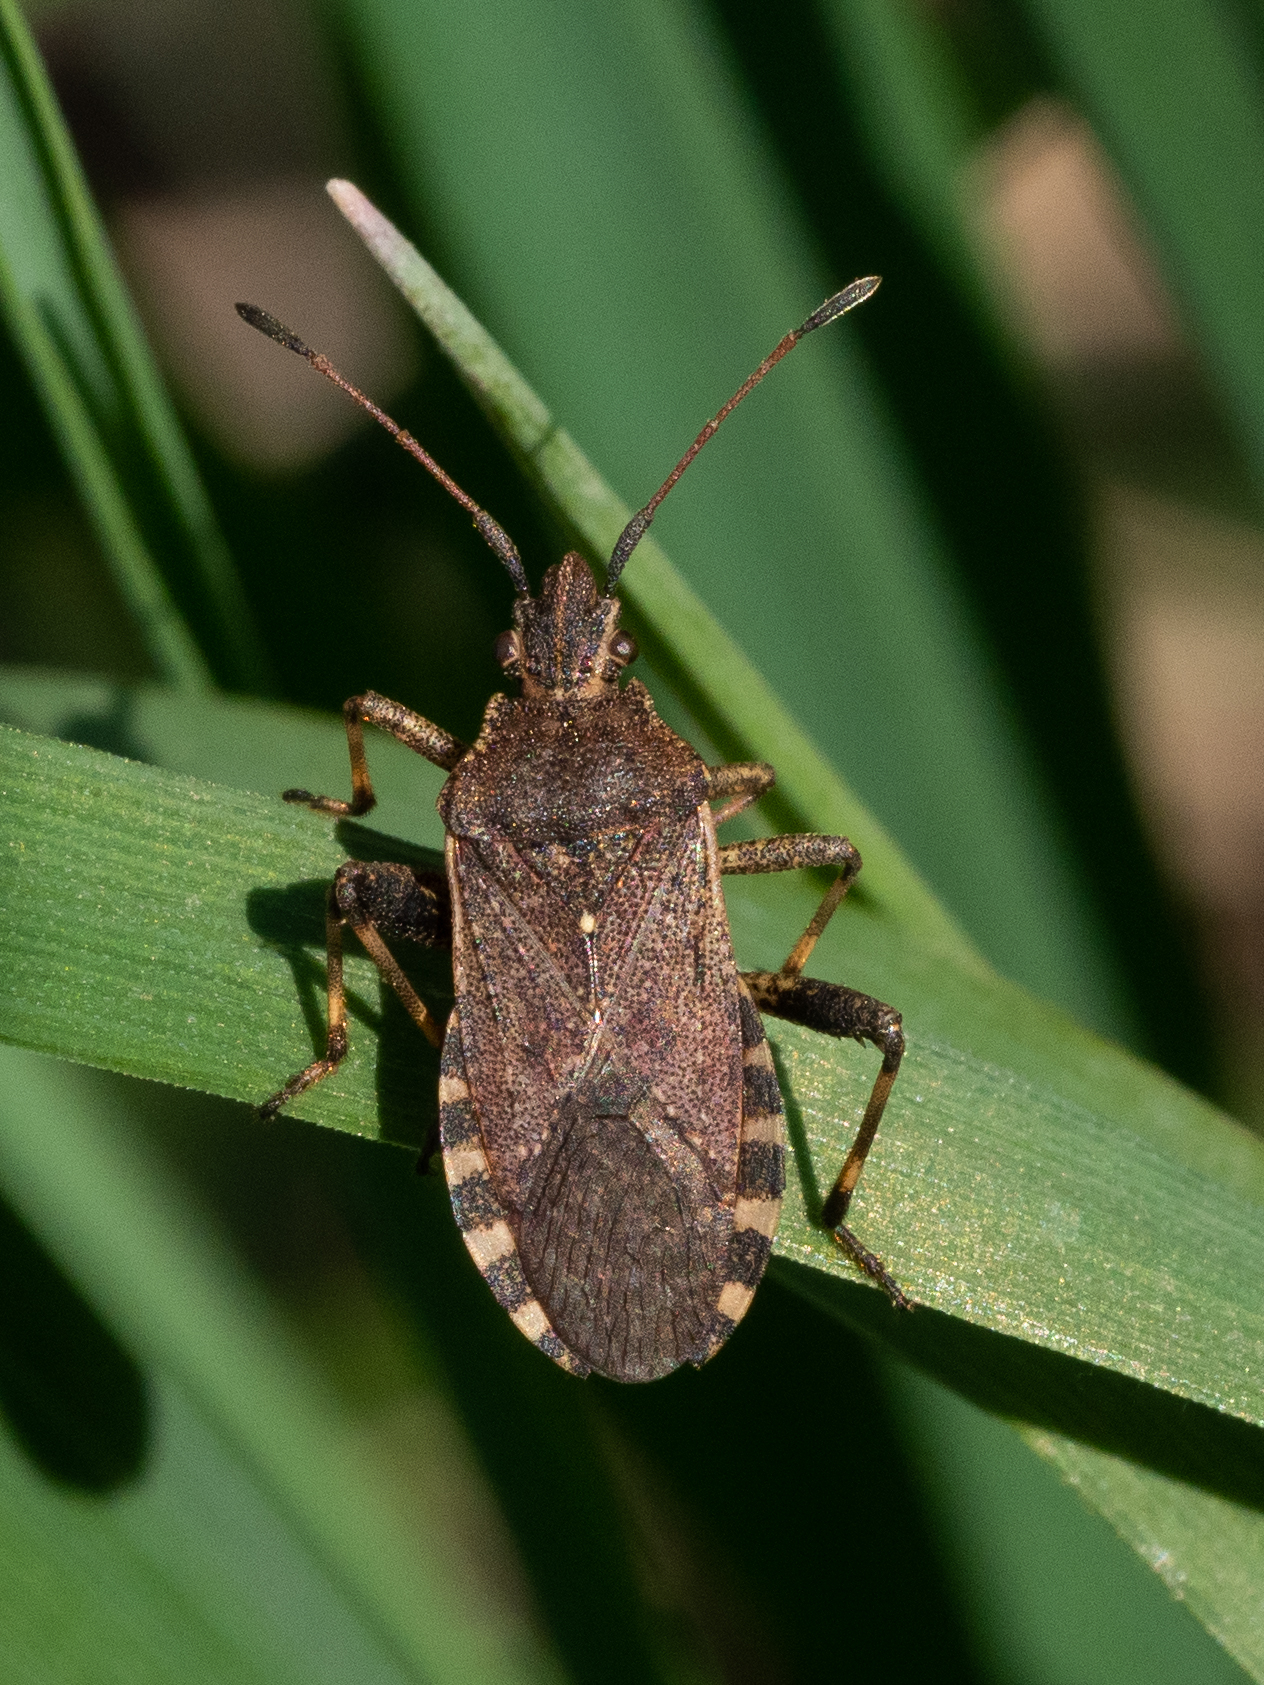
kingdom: Animalia
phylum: Arthropoda
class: Insecta
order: Hemiptera
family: Coreidae
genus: Ceraleptus
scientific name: Ceraleptus gracilicornis
